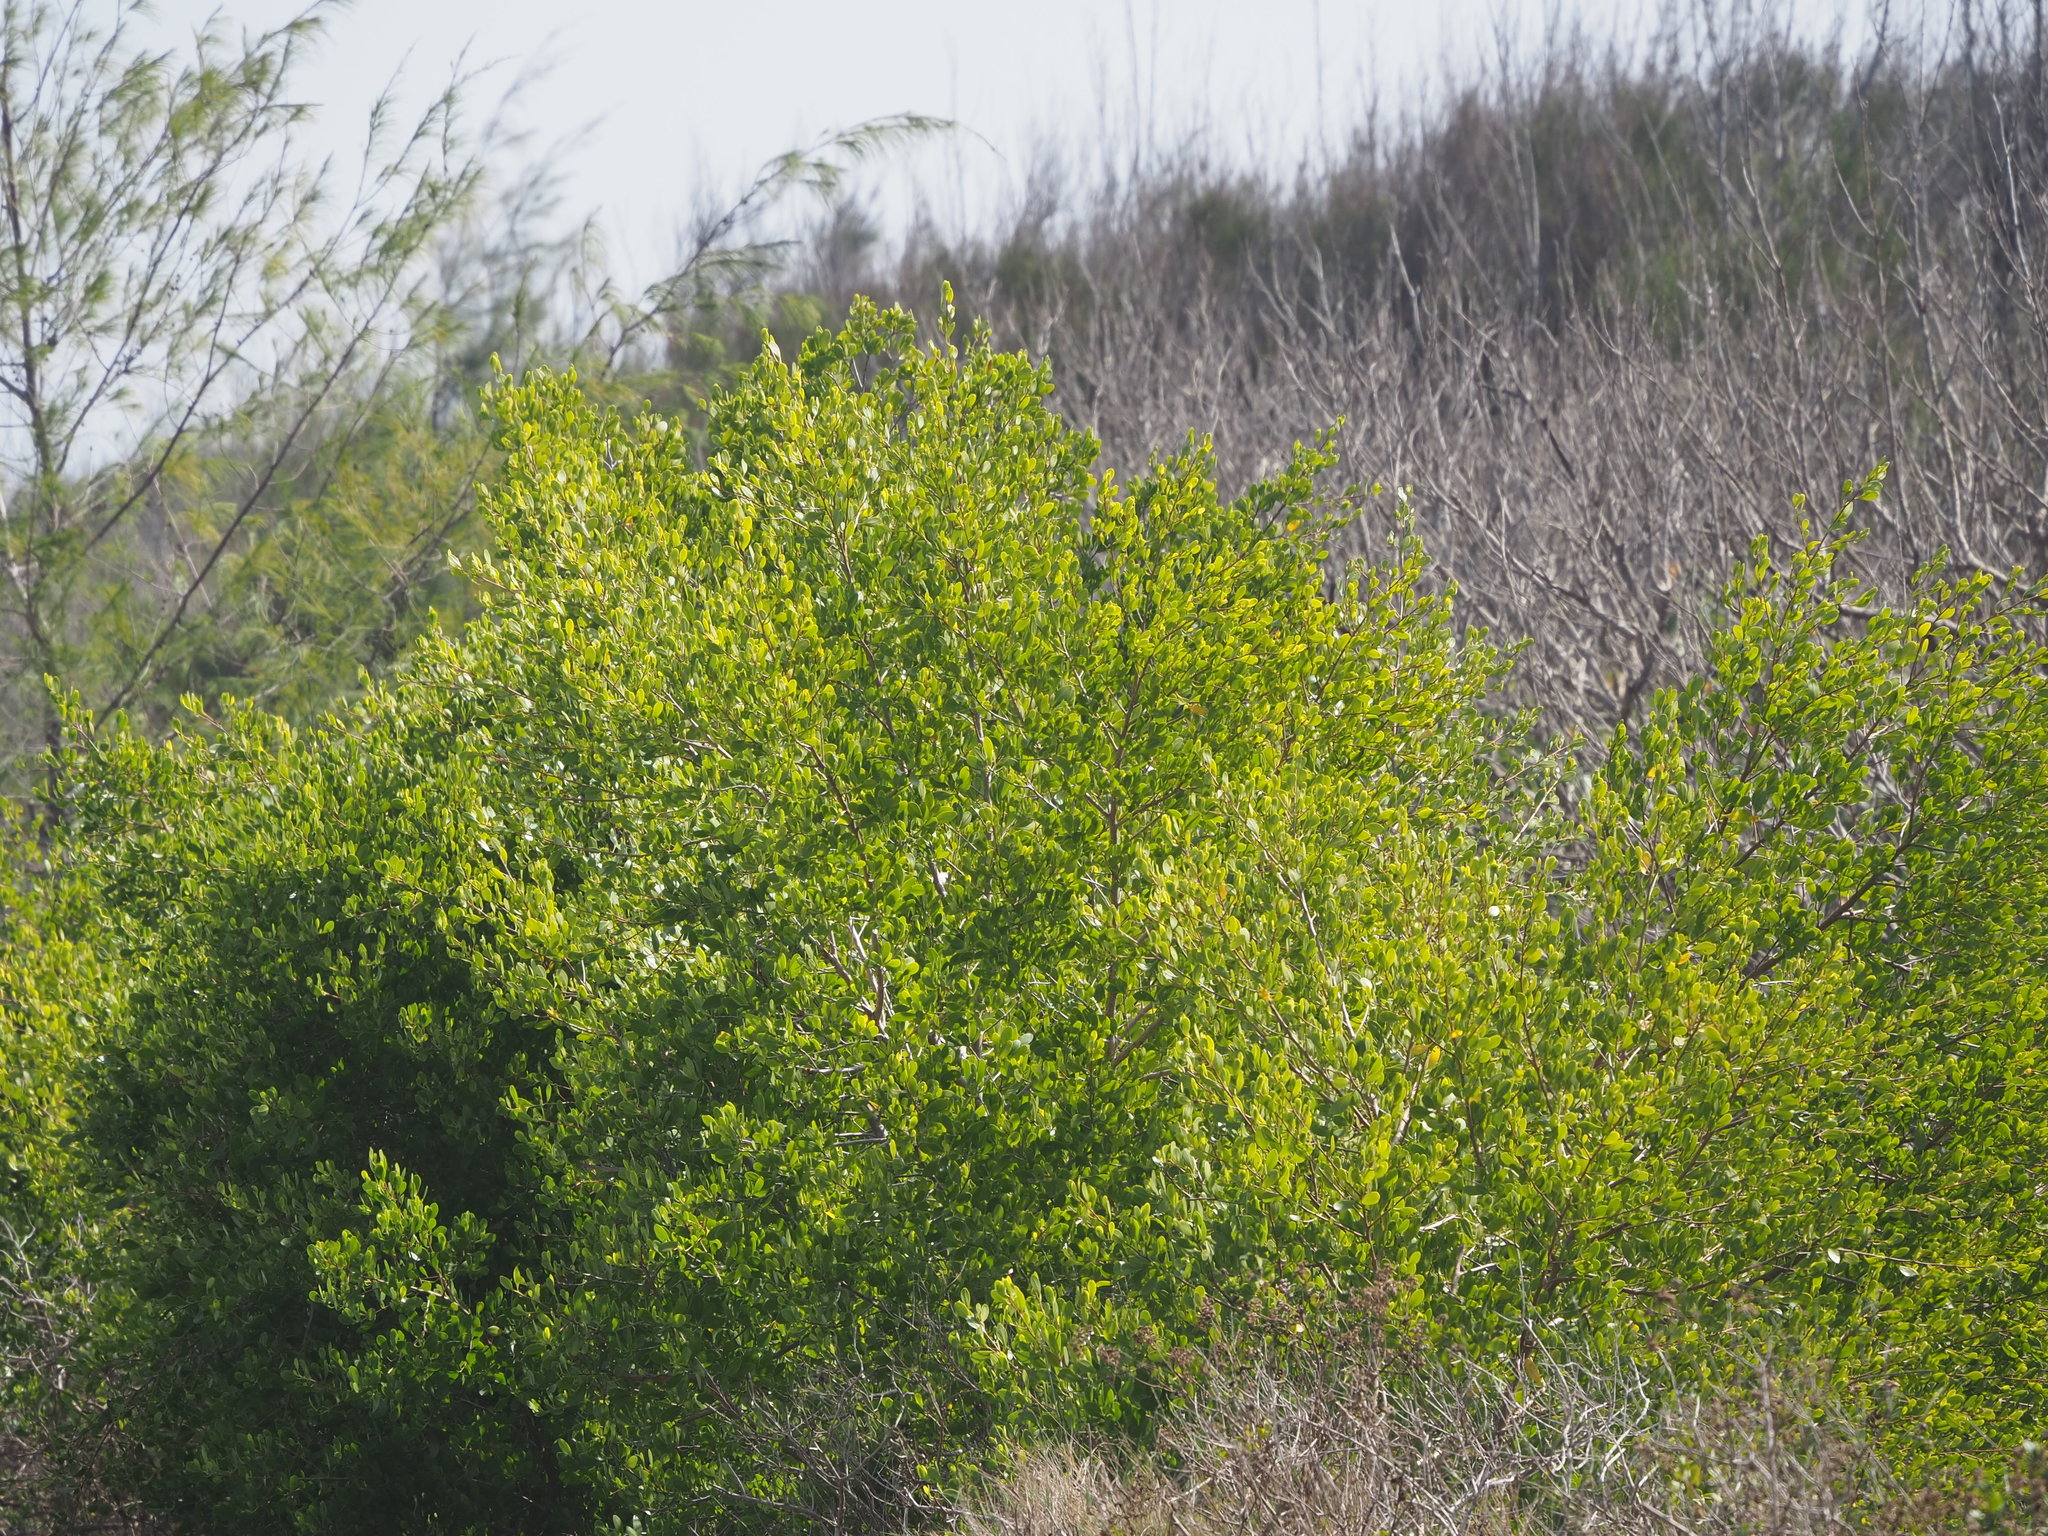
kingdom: Plantae
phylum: Tracheophyta
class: Magnoliopsida
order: Myrtales
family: Combretaceae
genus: Lumnitzera
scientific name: Lumnitzera racemosa
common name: White-flowered black mangrove
